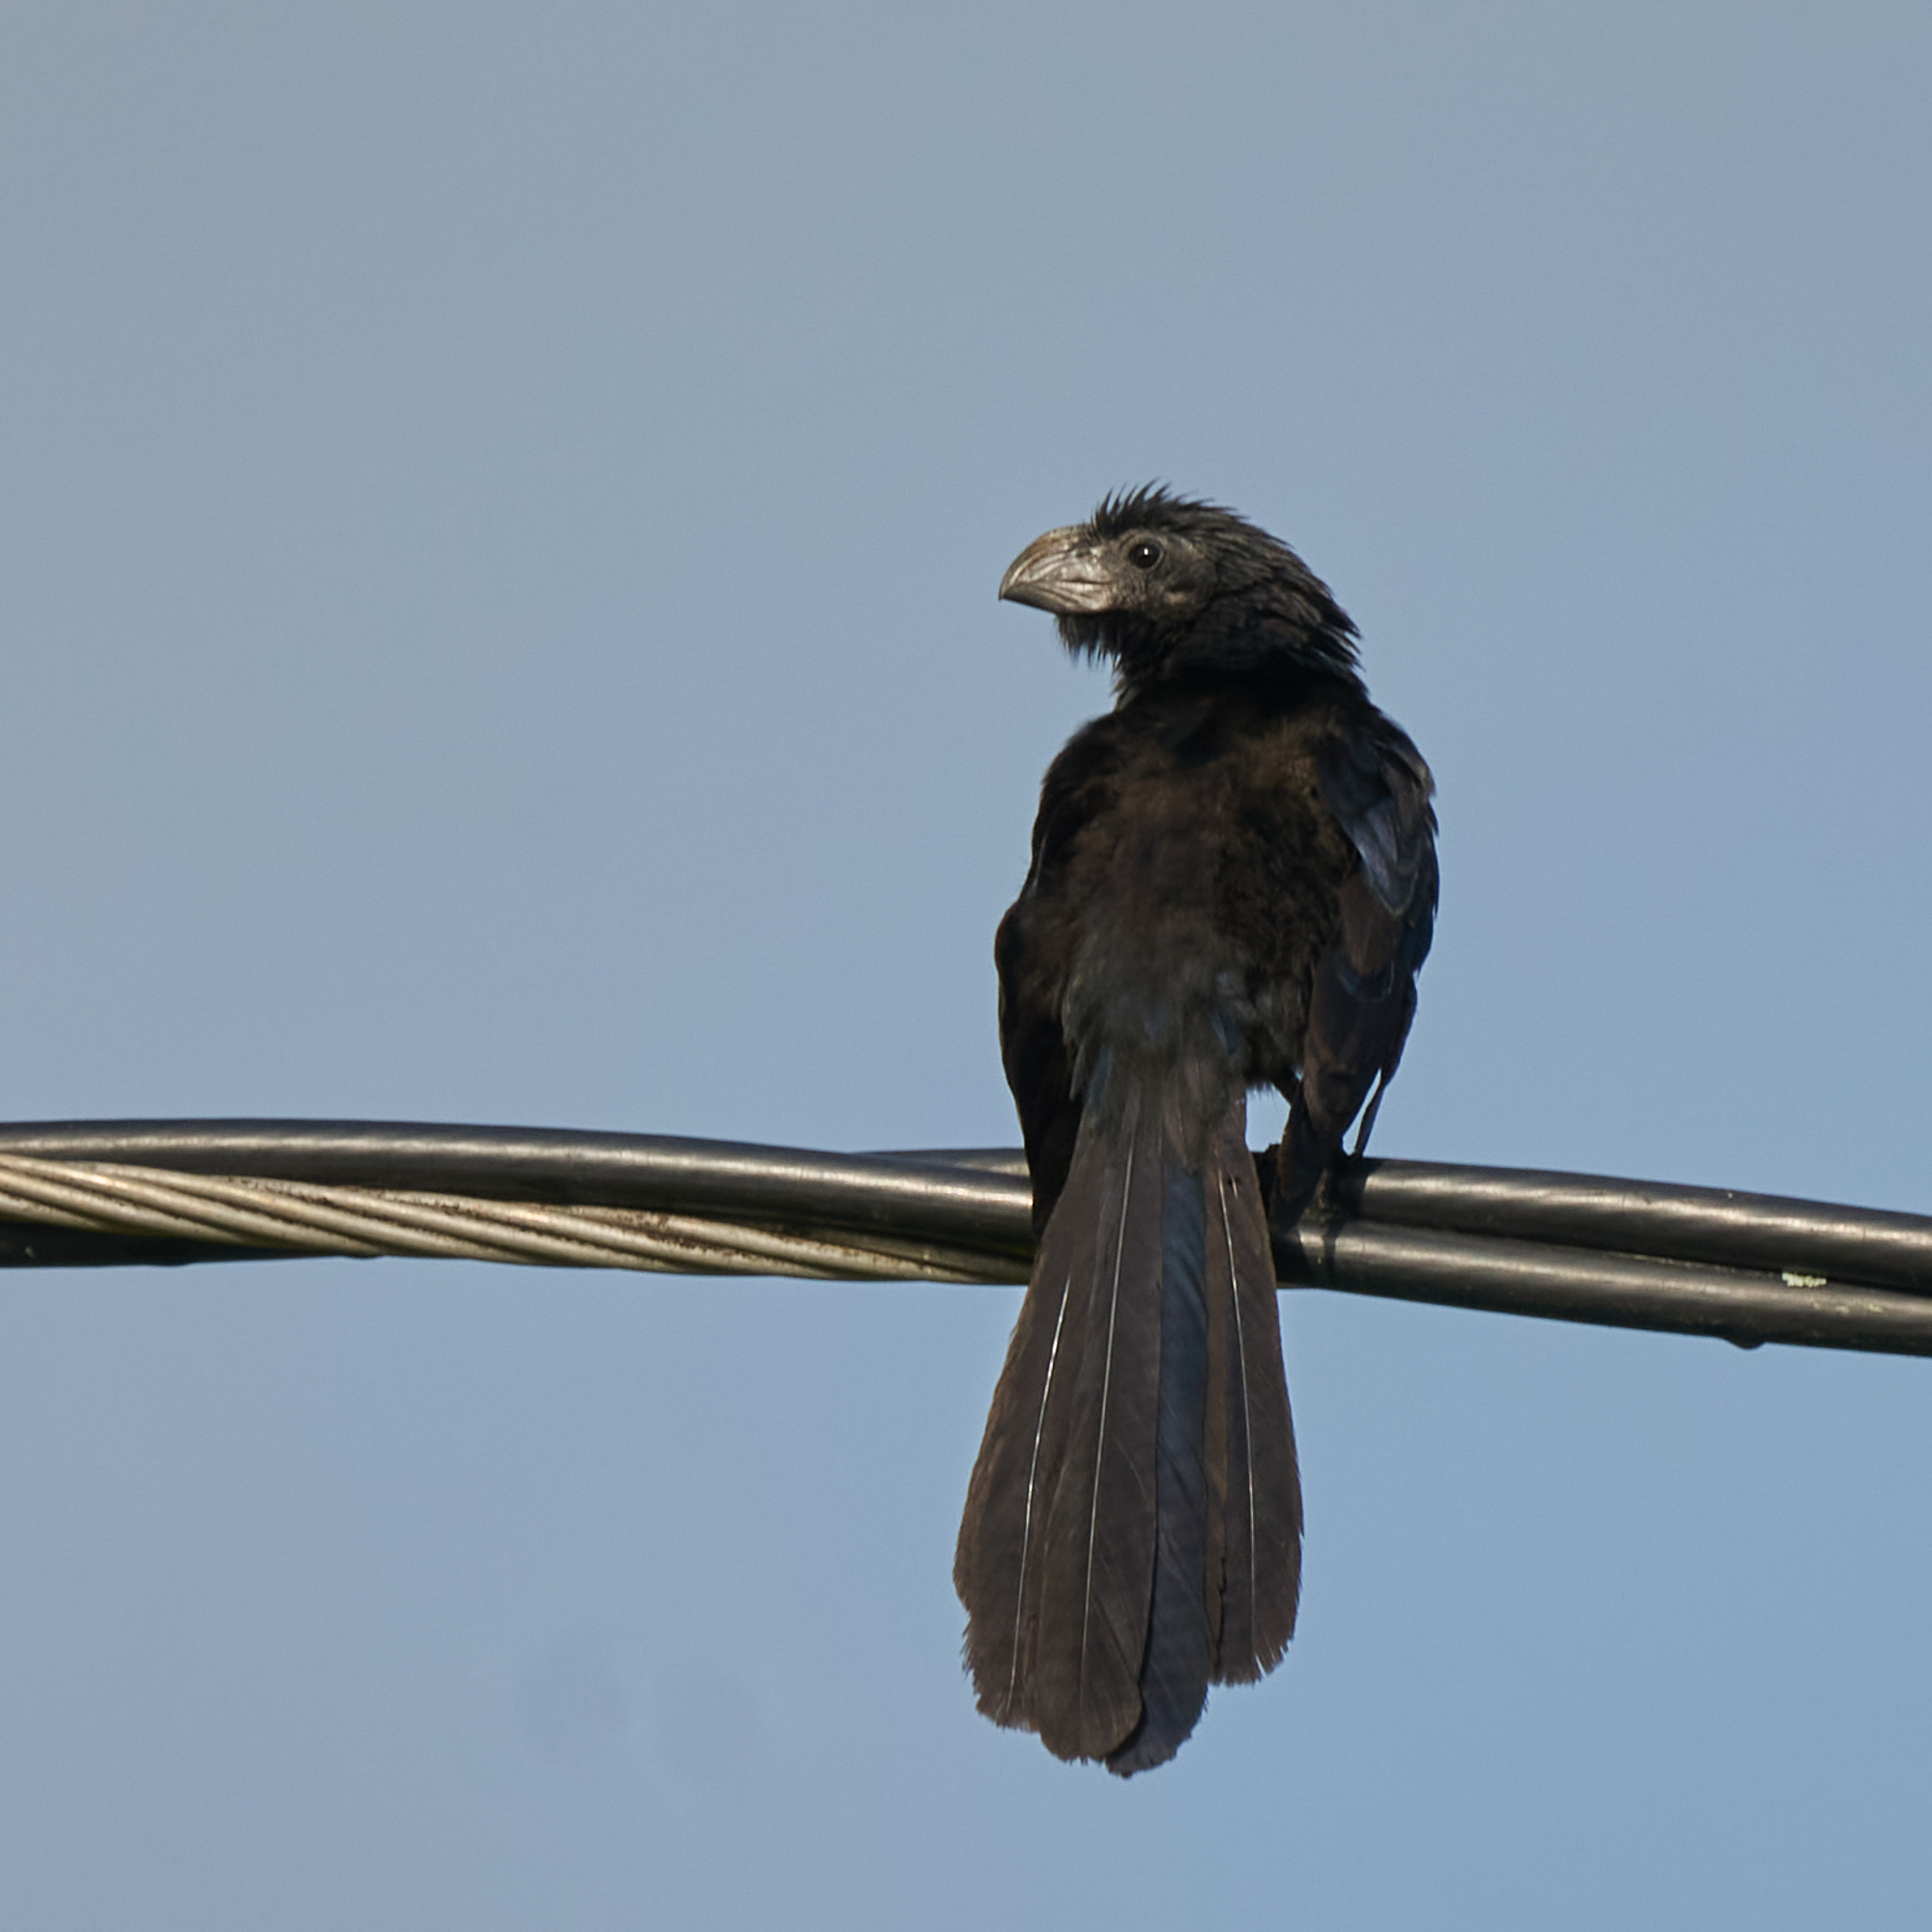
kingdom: Animalia
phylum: Chordata
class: Aves
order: Cuculiformes
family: Cuculidae
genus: Crotophaga
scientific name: Crotophaga sulcirostris
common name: Groove-billed ani
